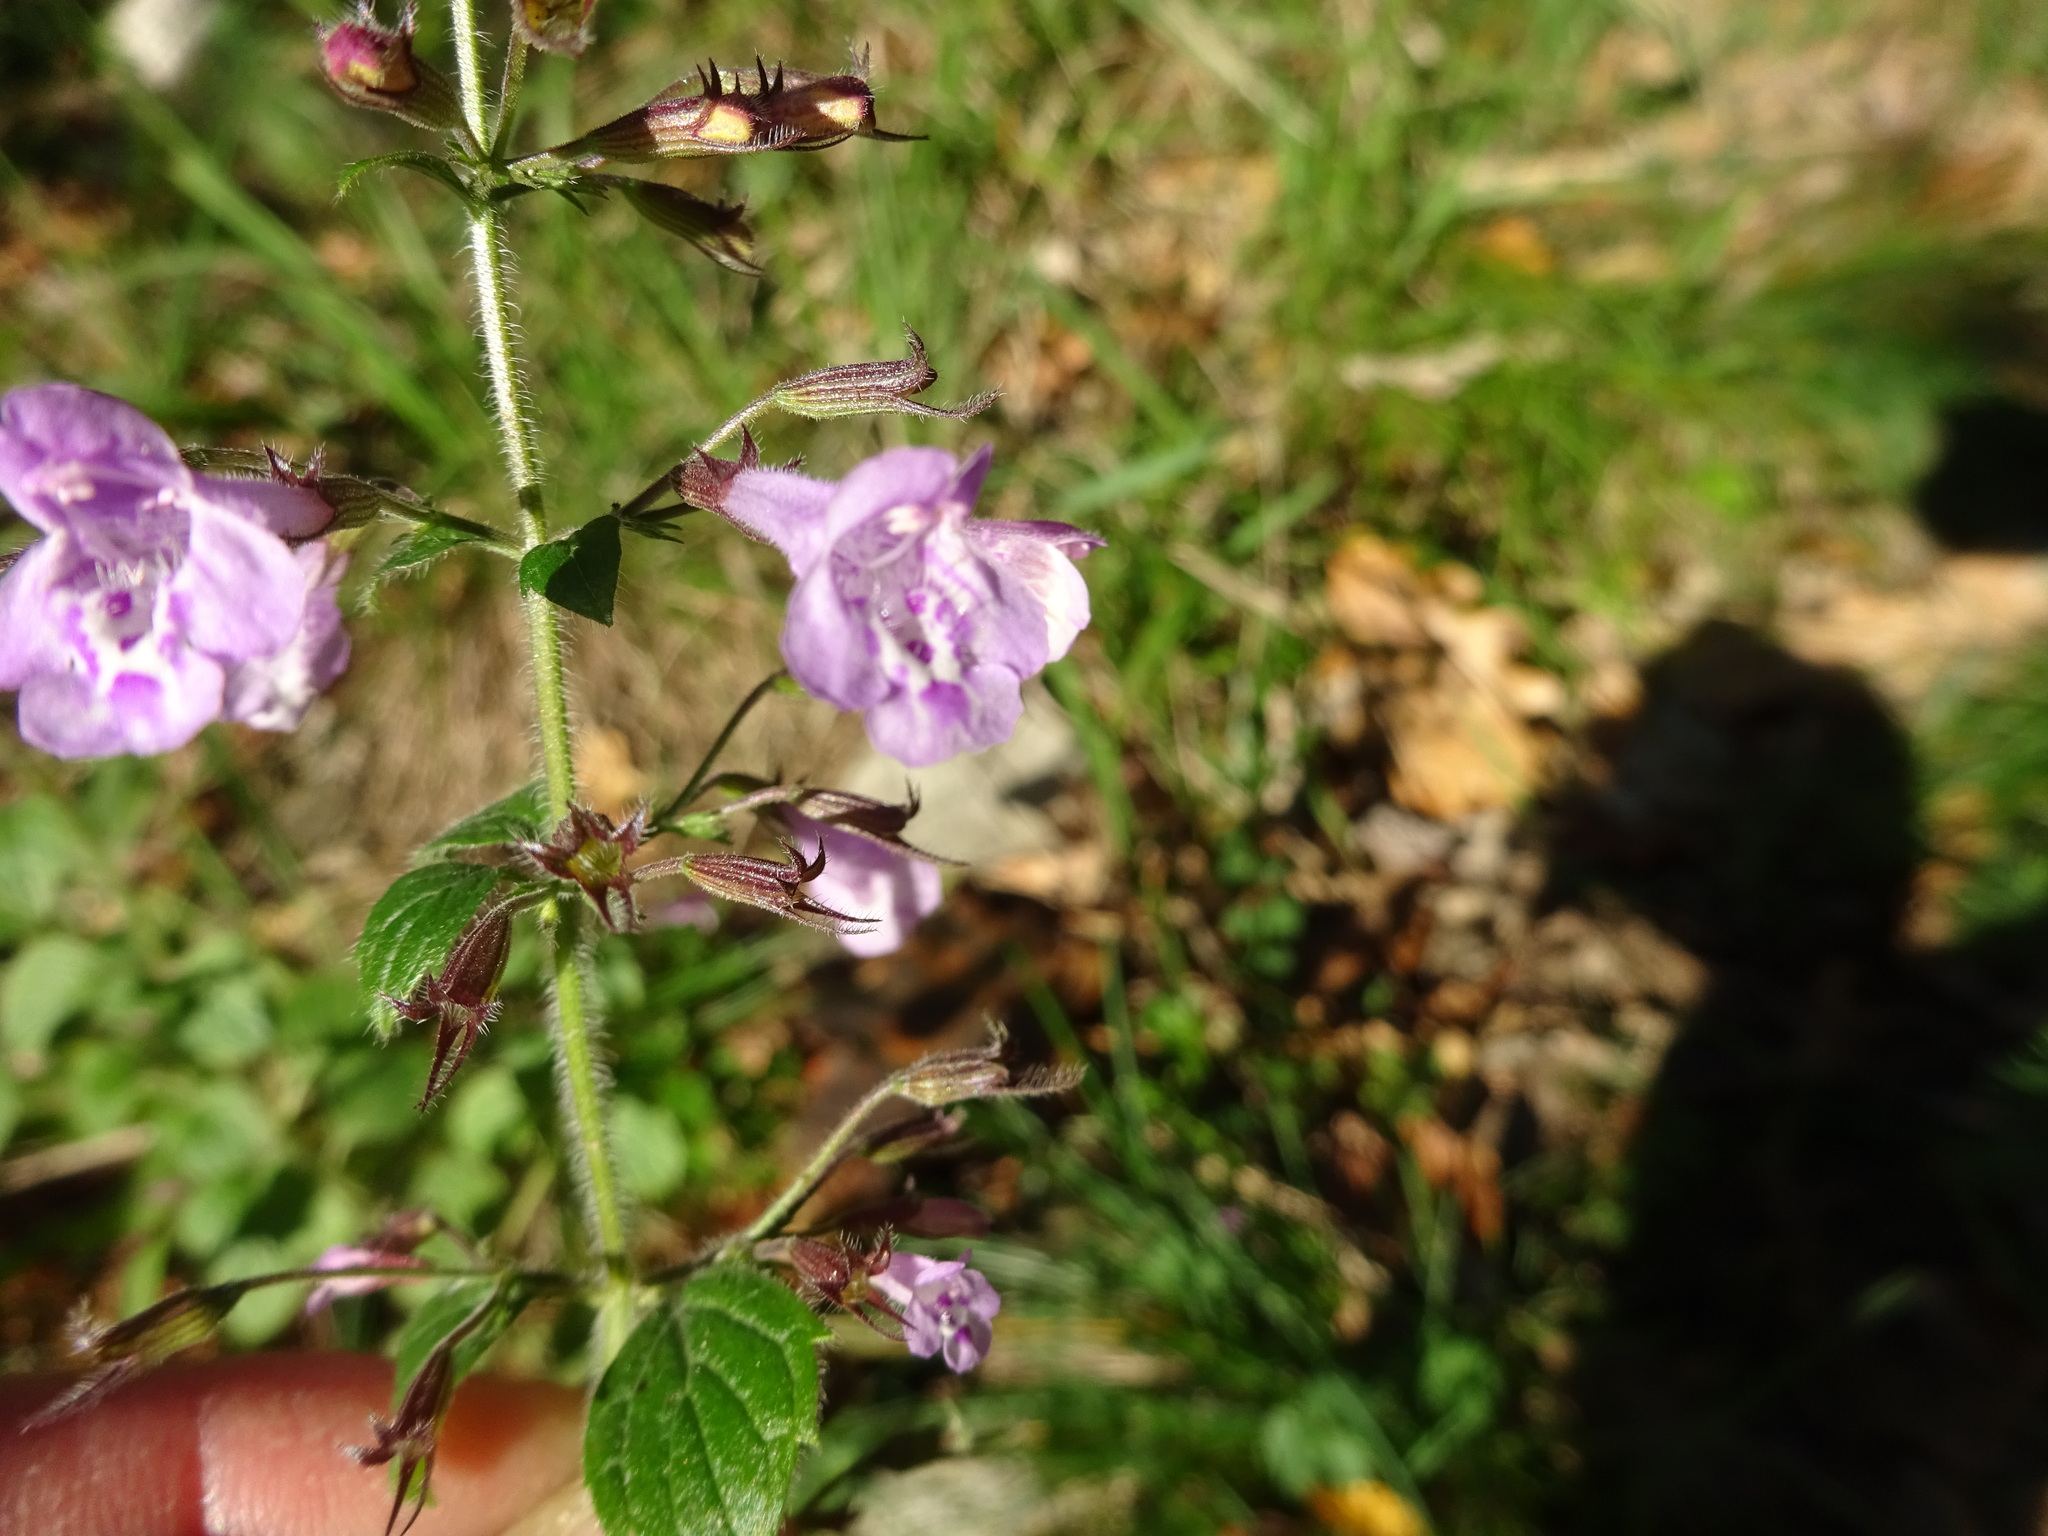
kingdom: Plantae
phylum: Tracheophyta
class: Magnoliopsida
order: Lamiales
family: Lamiaceae
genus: Clinopodium
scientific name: Clinopodium menthifolium
